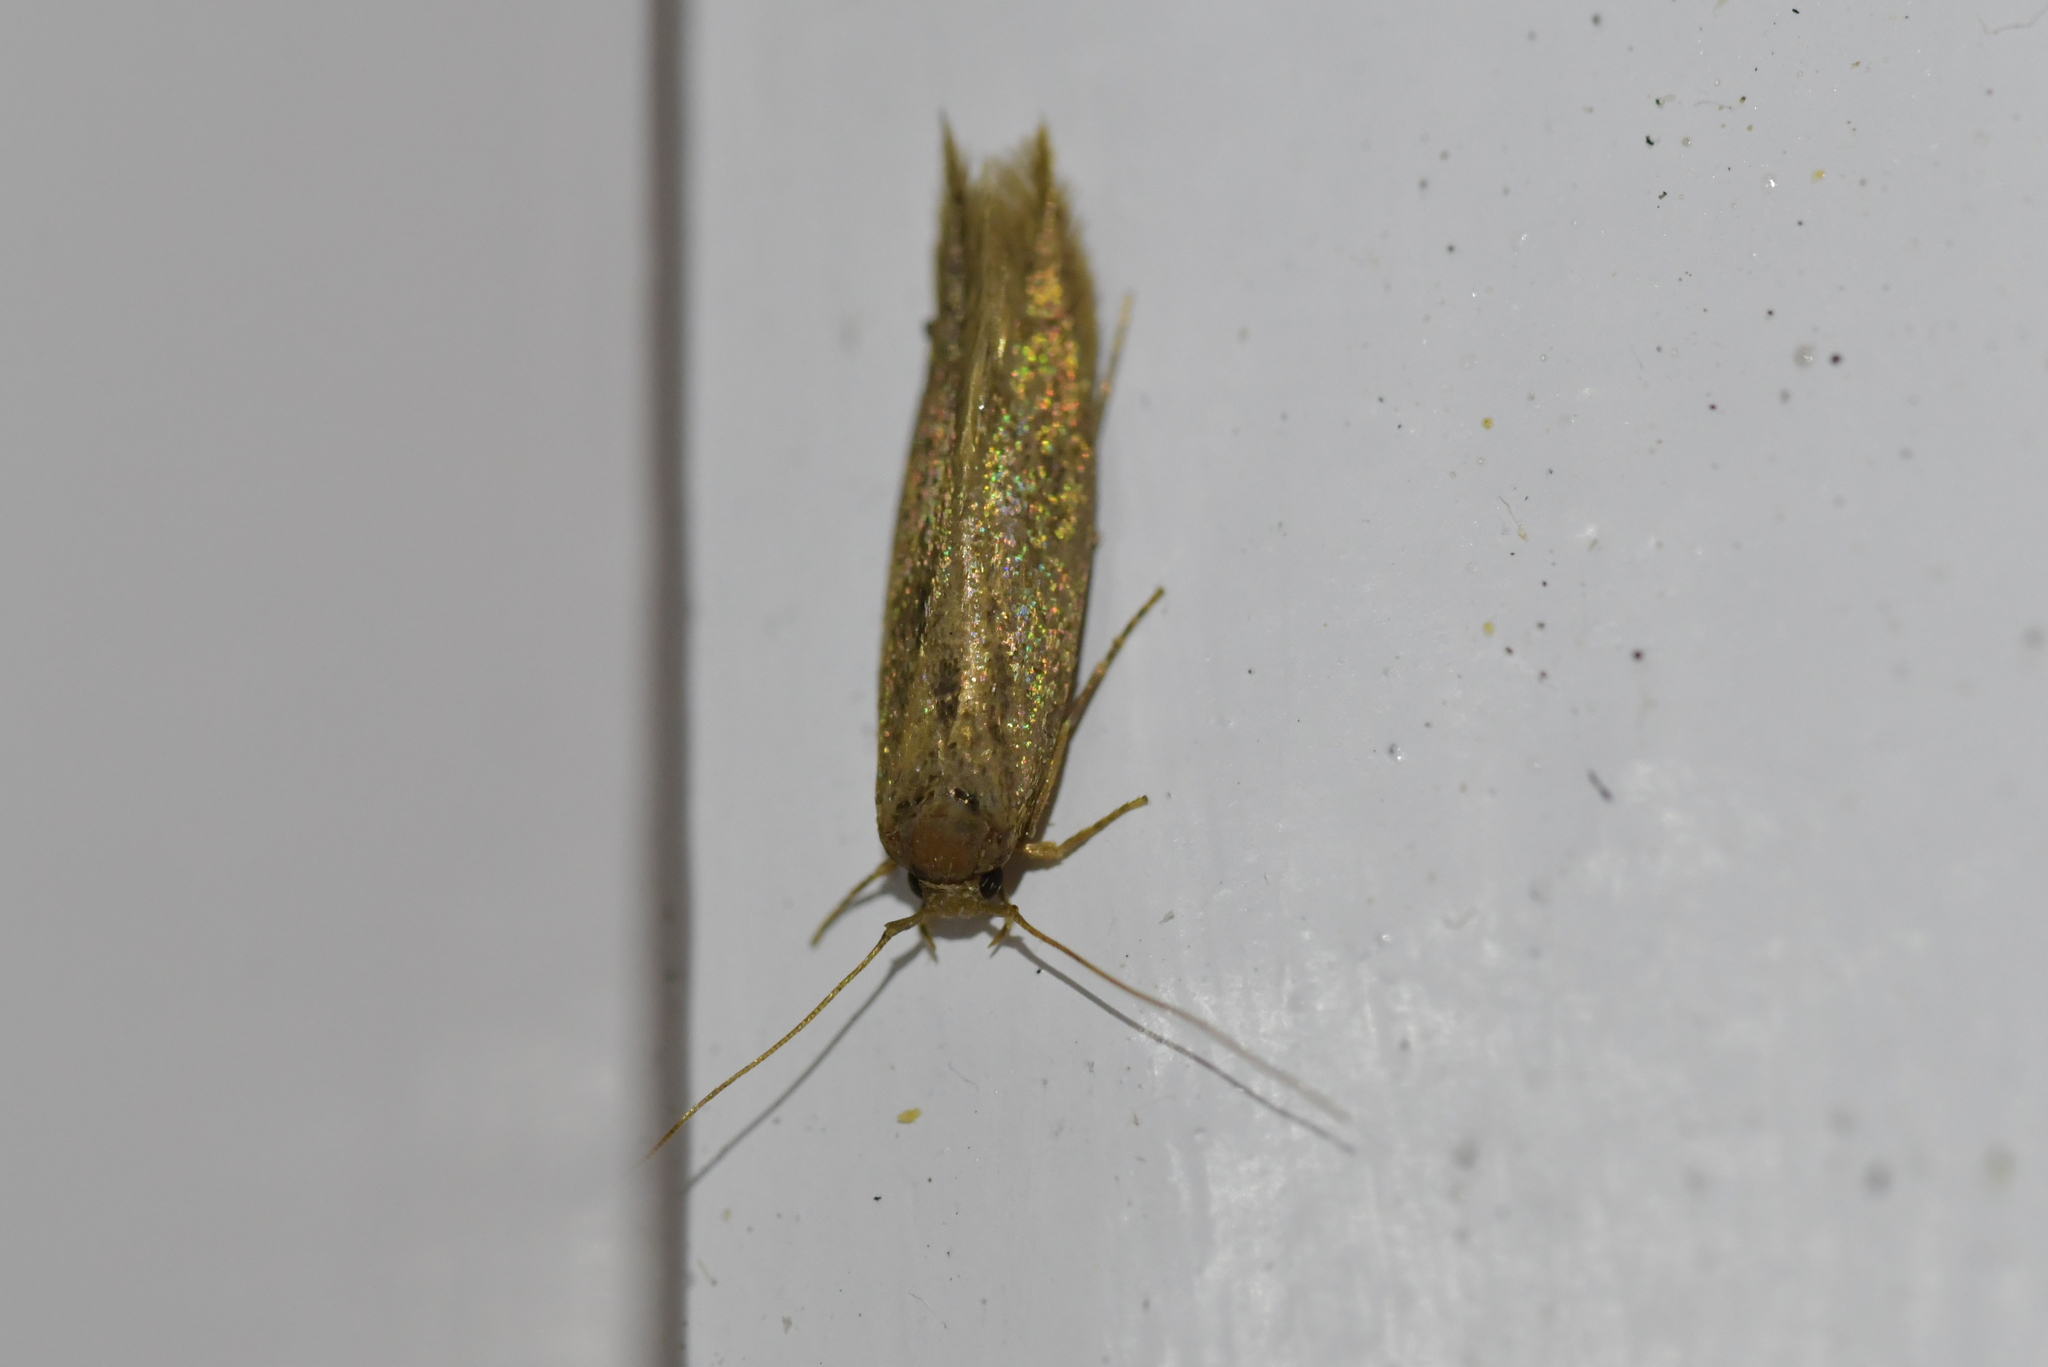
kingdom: Animalia
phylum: Arthropoda
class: Insecta
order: Lepidoptera
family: Tineidae
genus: Opogona
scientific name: Opogona omoscopa
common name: Moth
